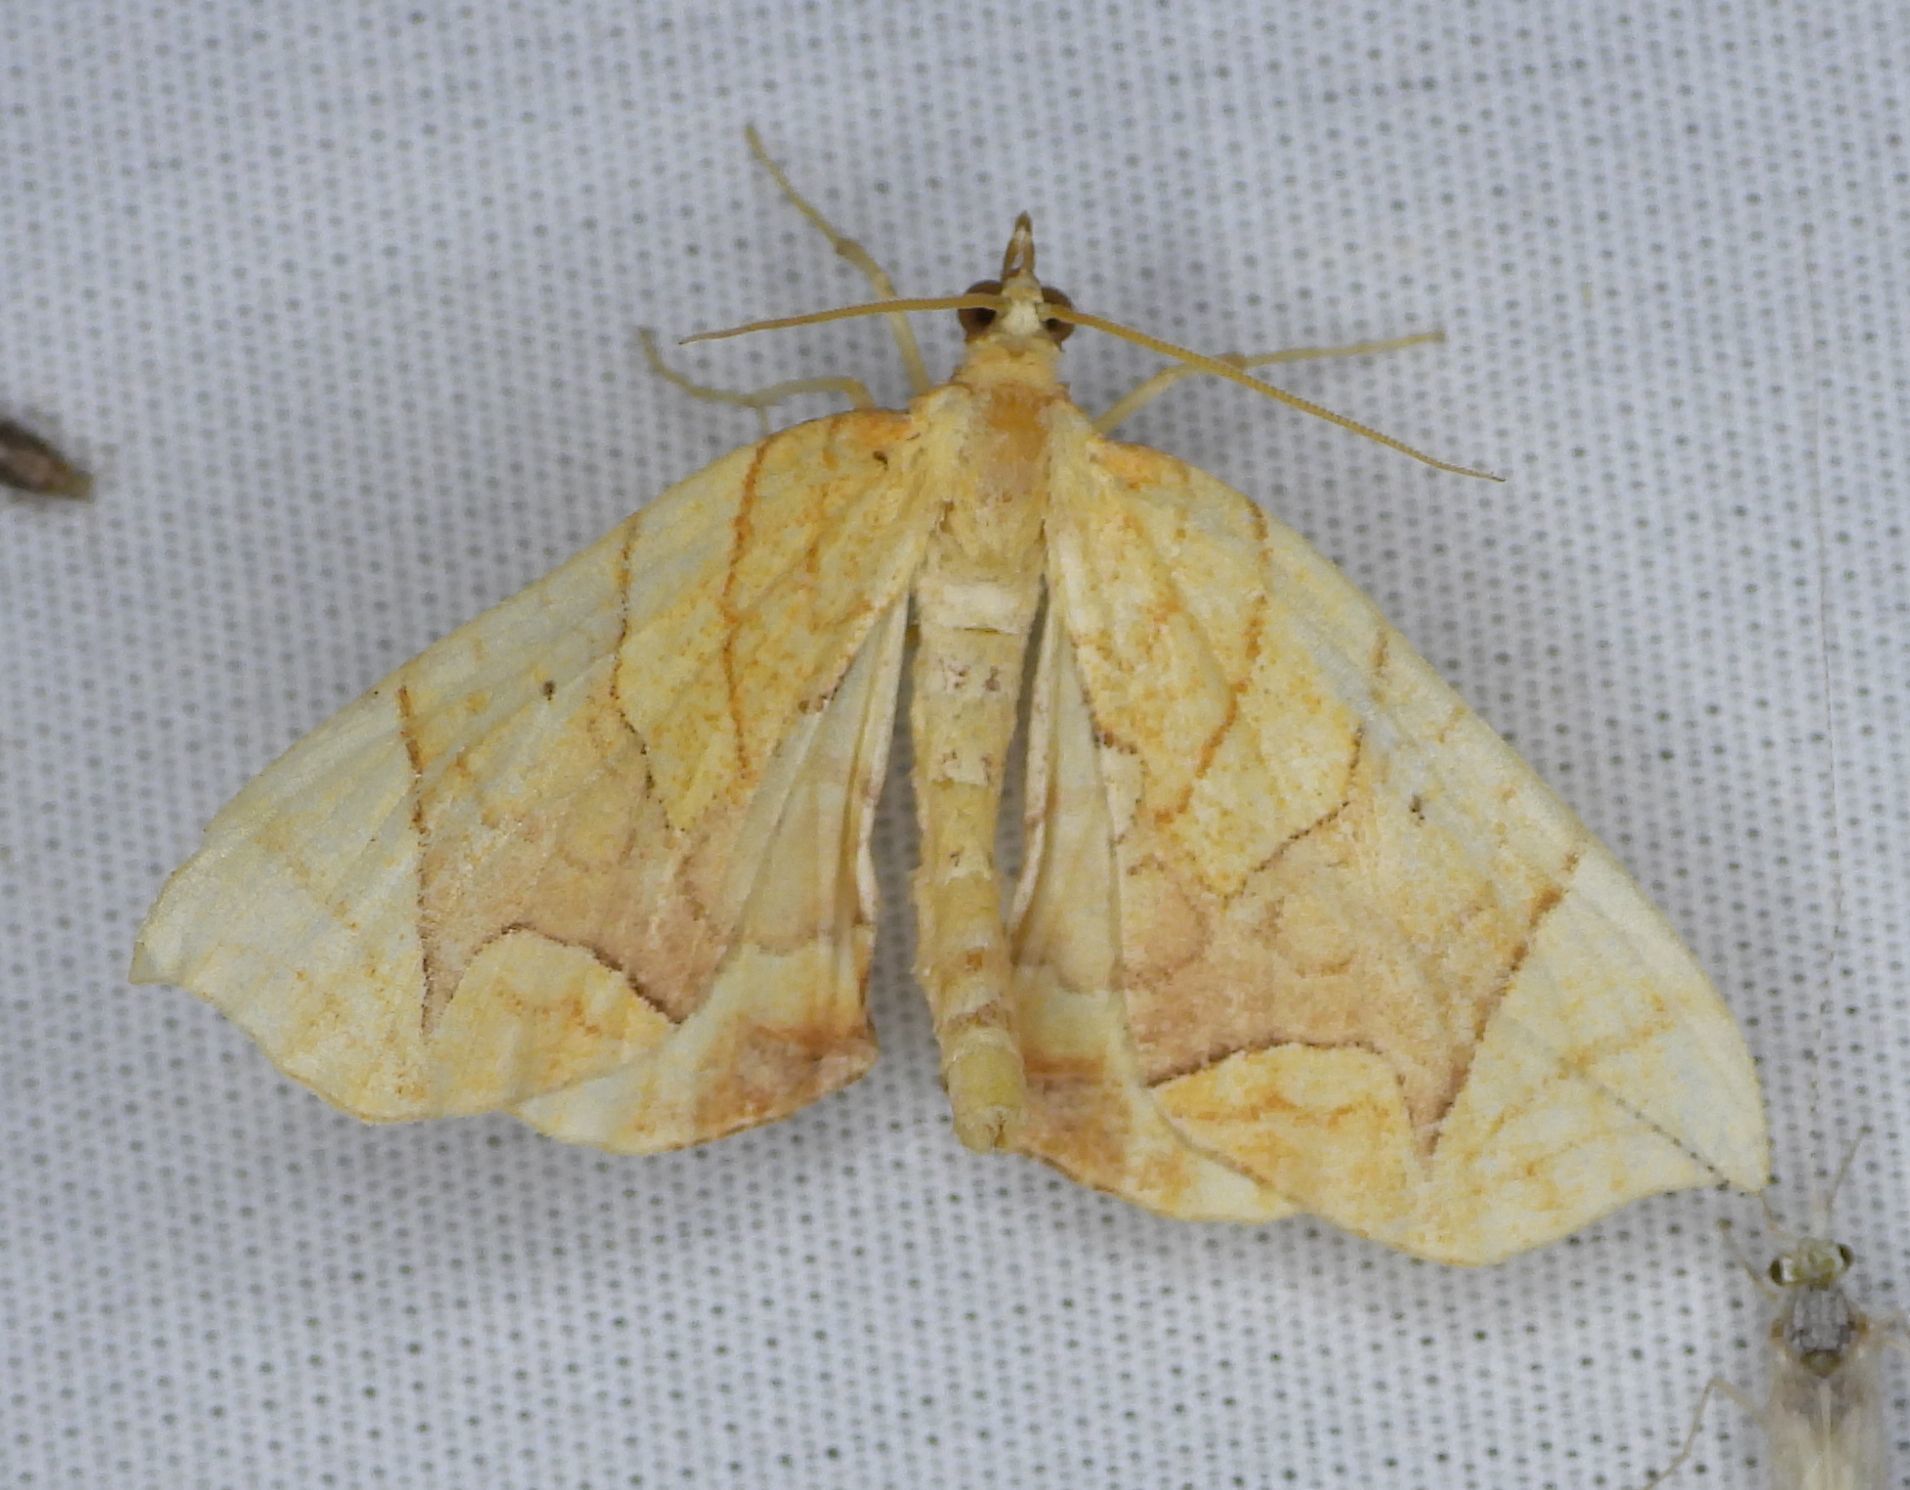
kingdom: Animalia
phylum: Arthropoda
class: Insecta
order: Lepidoptera
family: Geometridae
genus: Eulithis
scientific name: Eulithis
